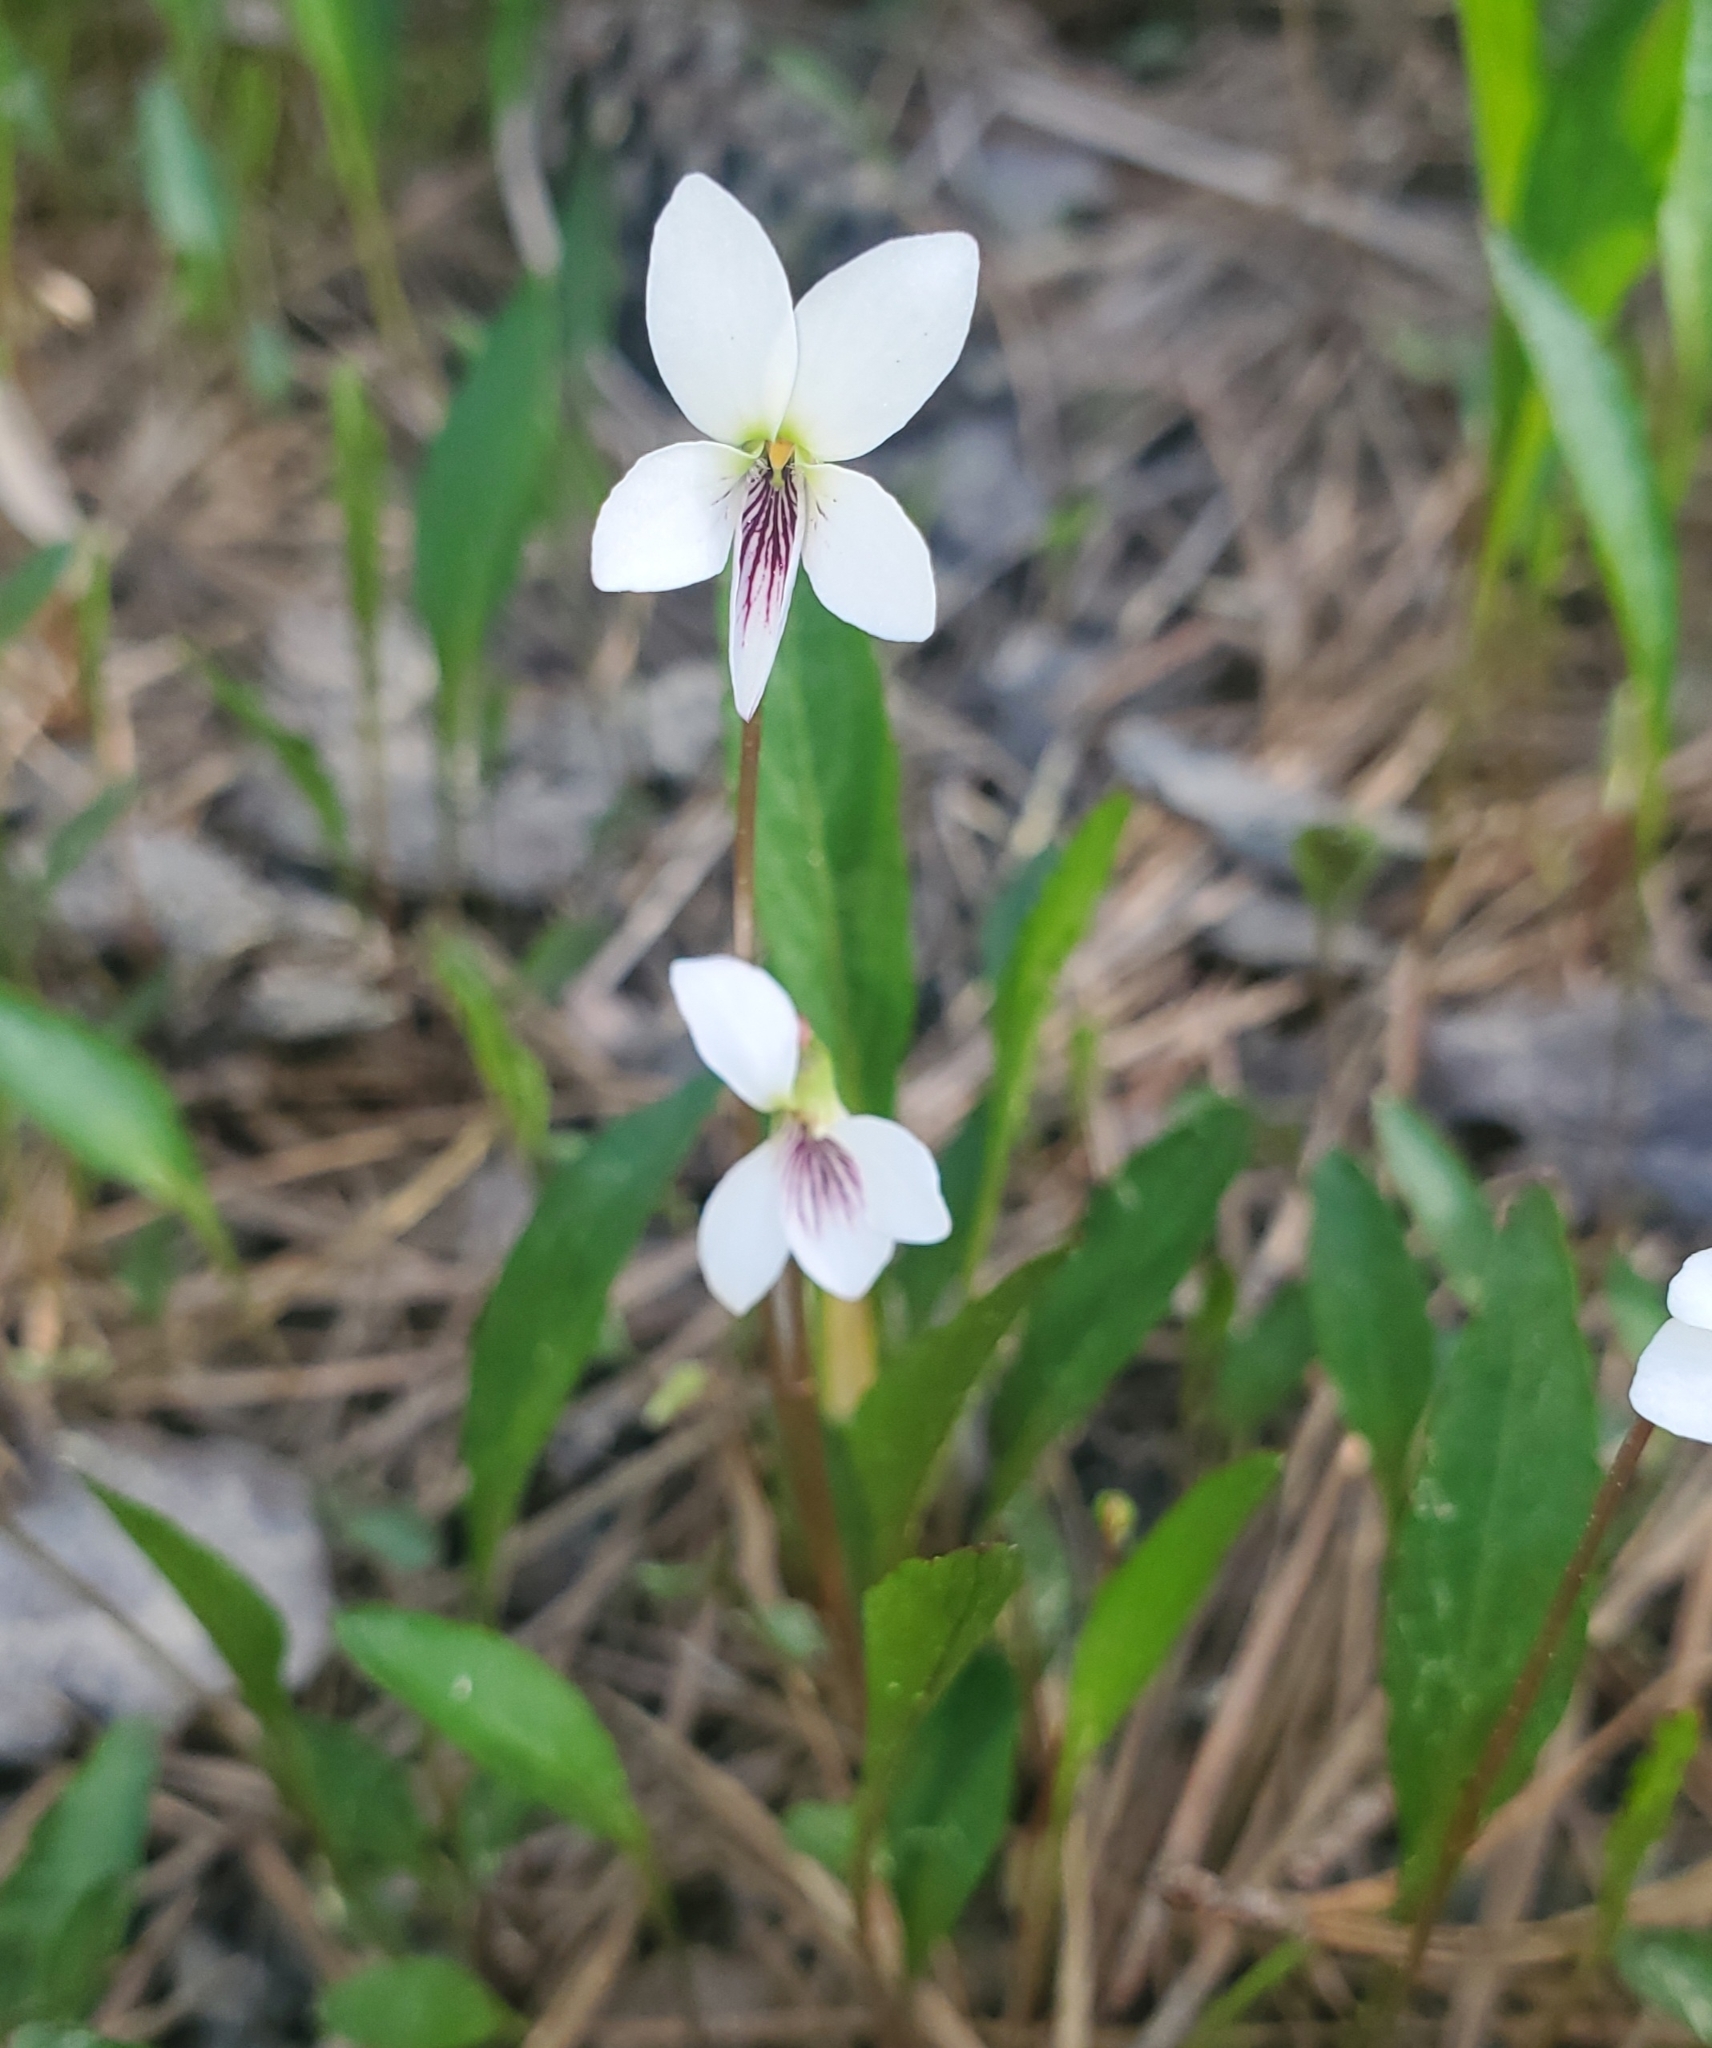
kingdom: Plantae
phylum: Tracheophyta
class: Magnoliopsida
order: Malpighiales
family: Violaceae
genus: Viola
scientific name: Viola lanceolata
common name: Bog white violet
